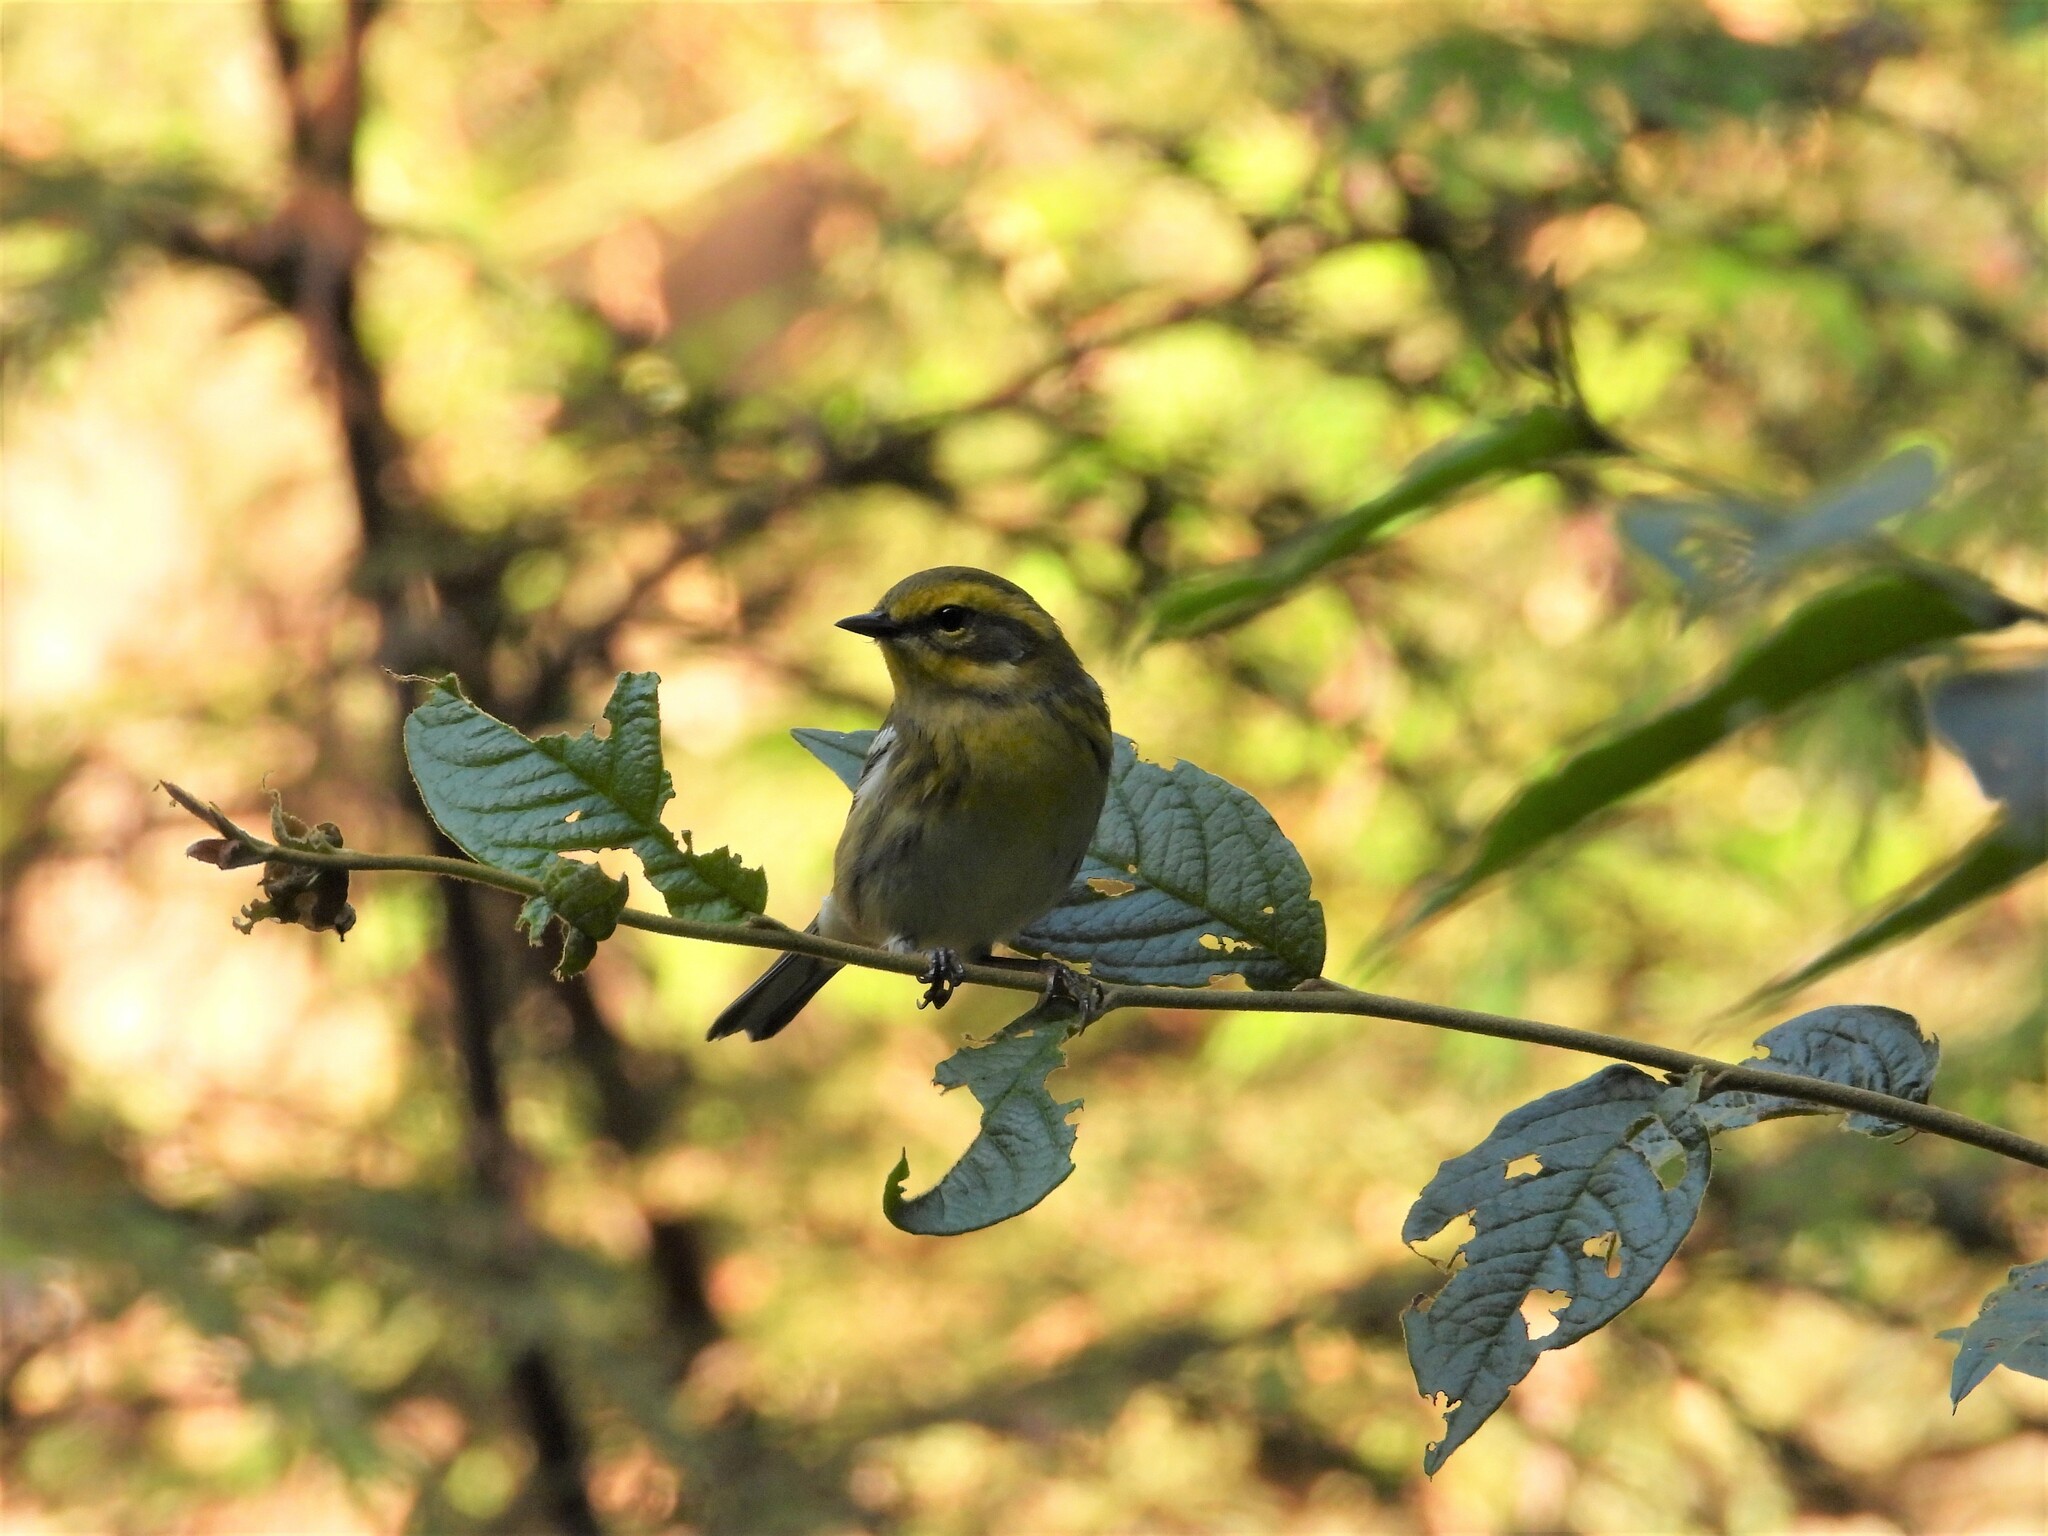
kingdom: Animalia
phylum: Chordata
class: Aves
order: Passeriformes
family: Parulidae
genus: Setophaga
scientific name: Setophaga townsendi
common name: Townsend's warbler
